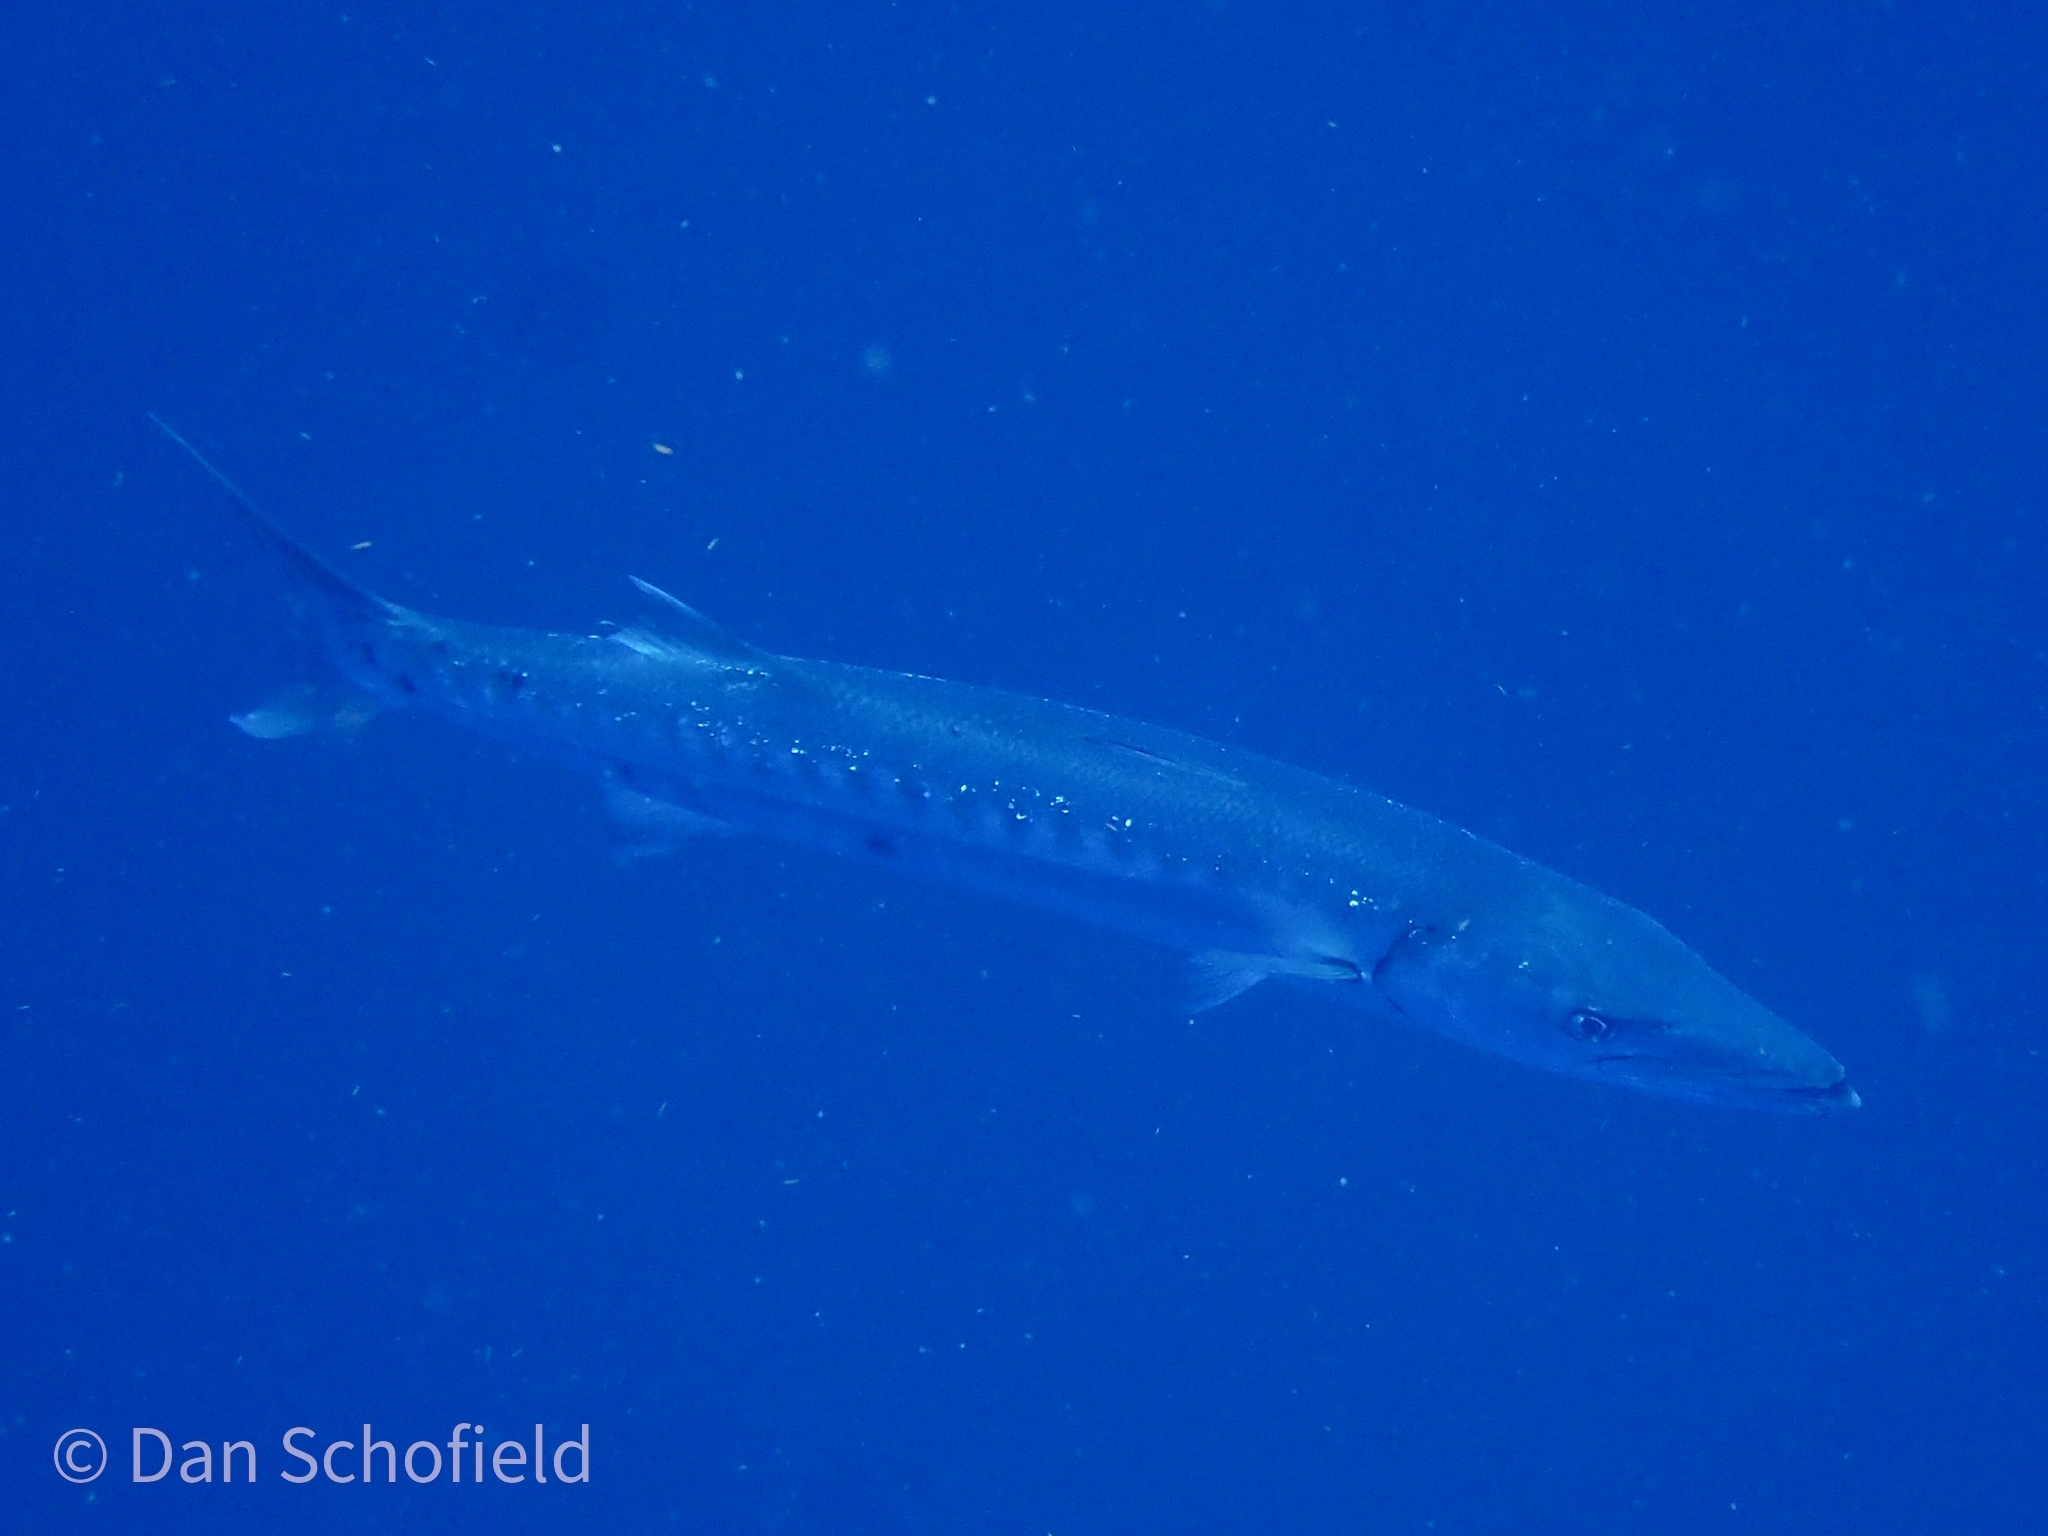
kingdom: Animalia
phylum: Chordata
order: Perciformes
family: Sphyraenidae
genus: Sphyraena
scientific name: Sphyraena barracuda
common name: Great barracuda
